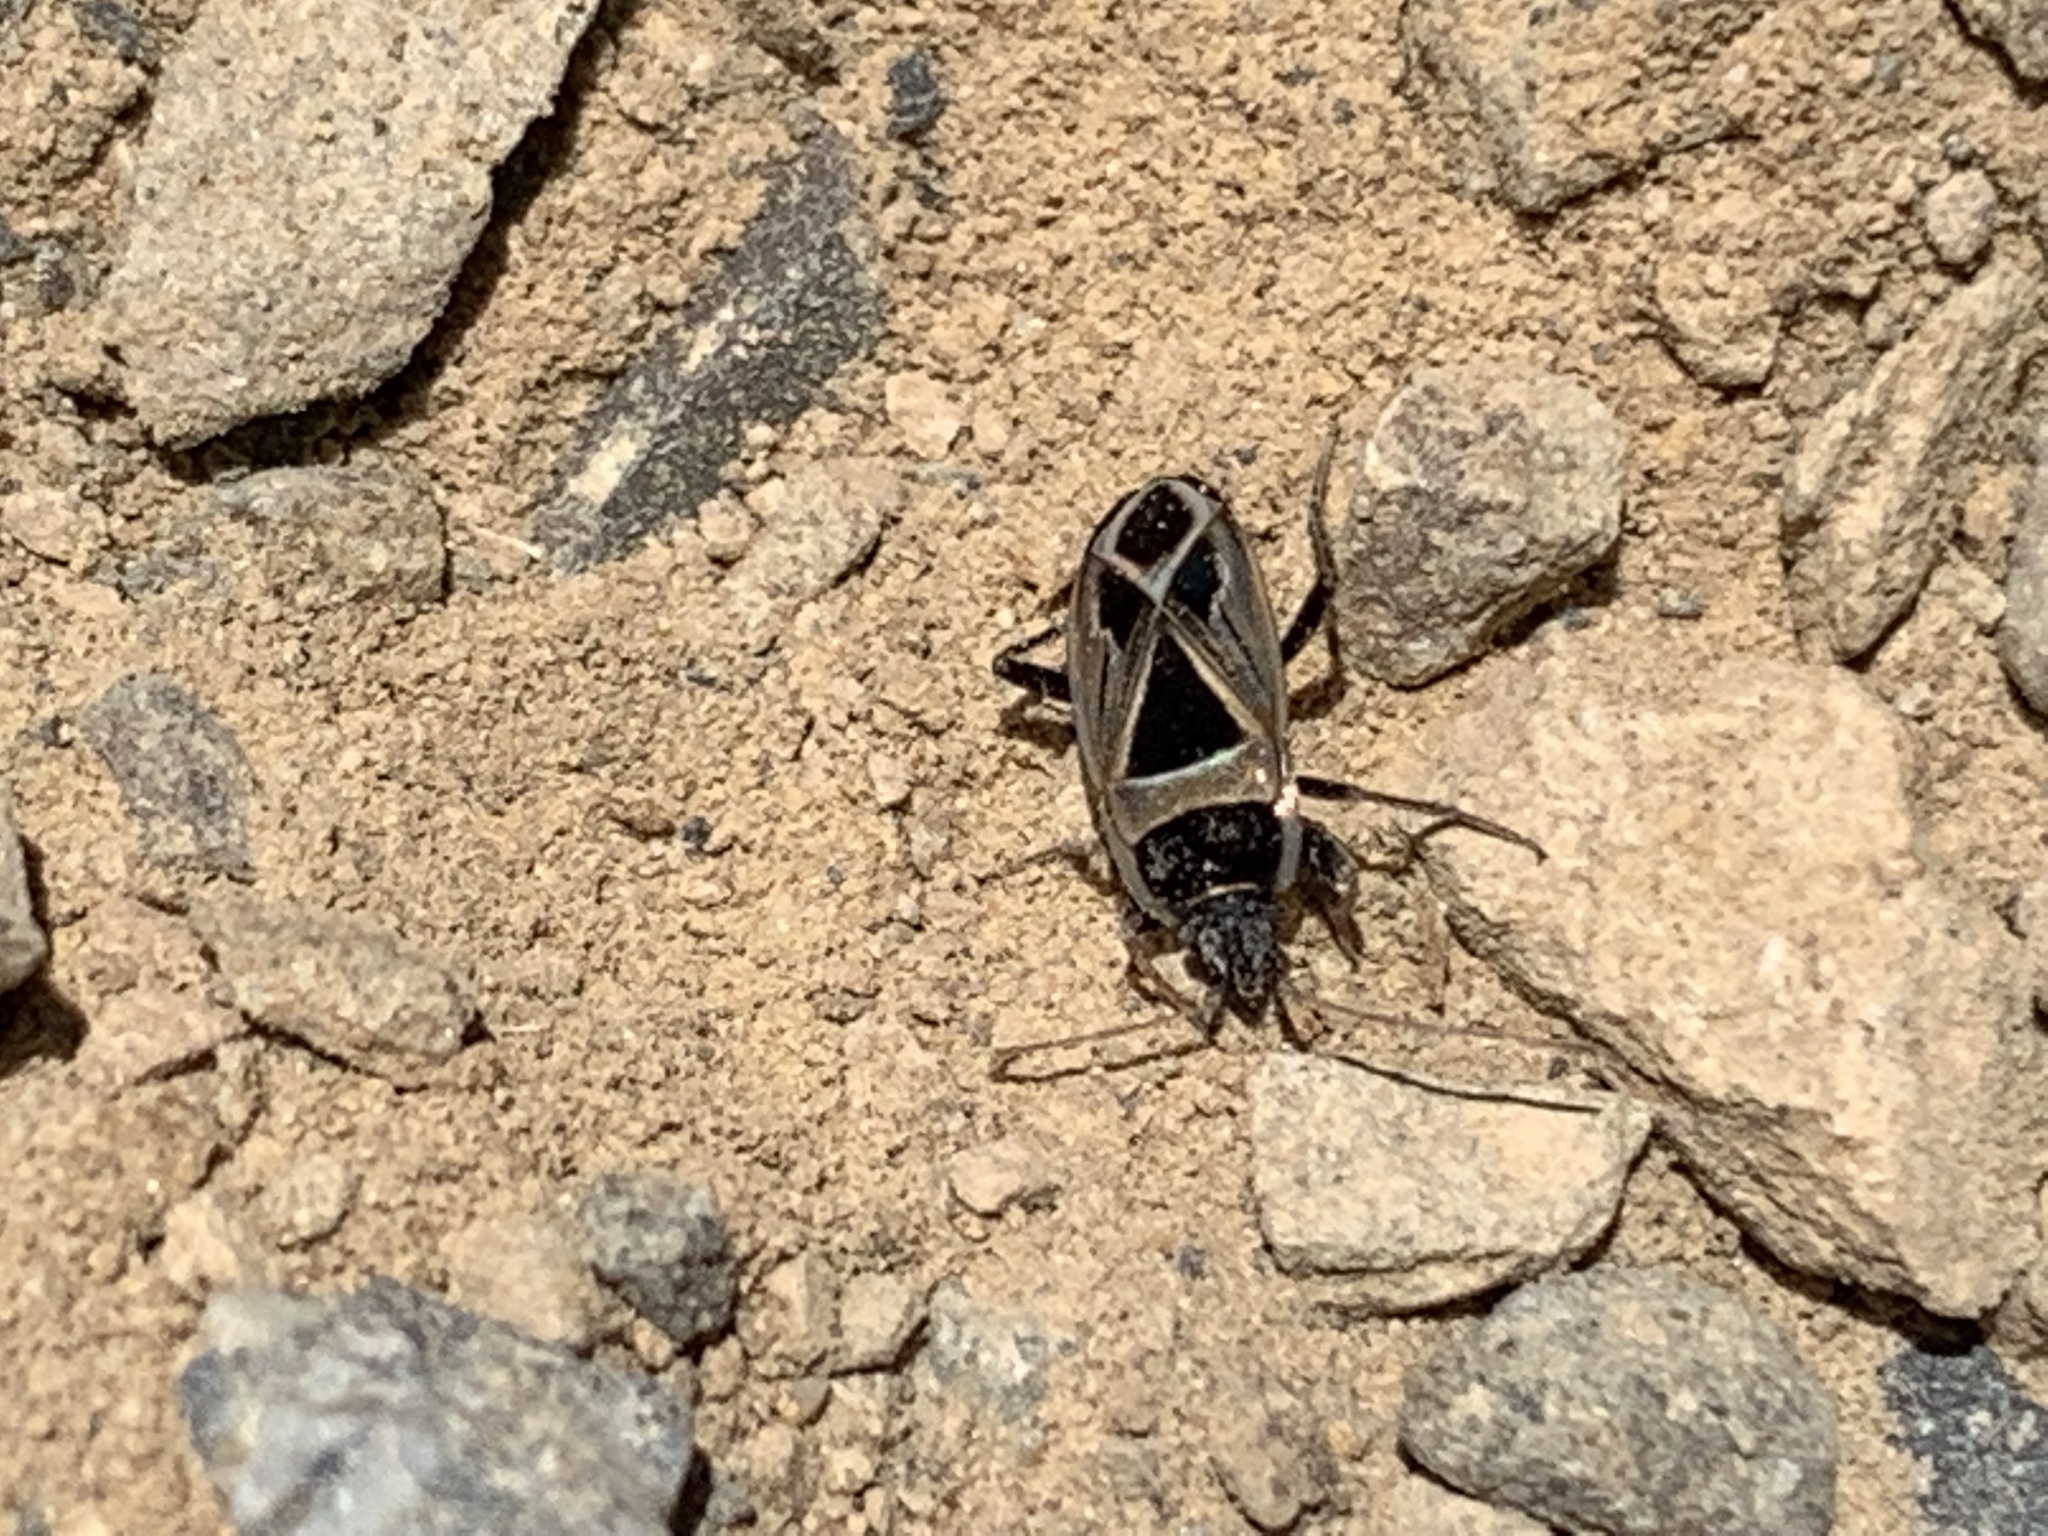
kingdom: Animalia
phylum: Arthropoda
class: Insecta
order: Hemiptera
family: Rhyparochromidae
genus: Xanthochilus
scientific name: Xanthochilus saturnius
